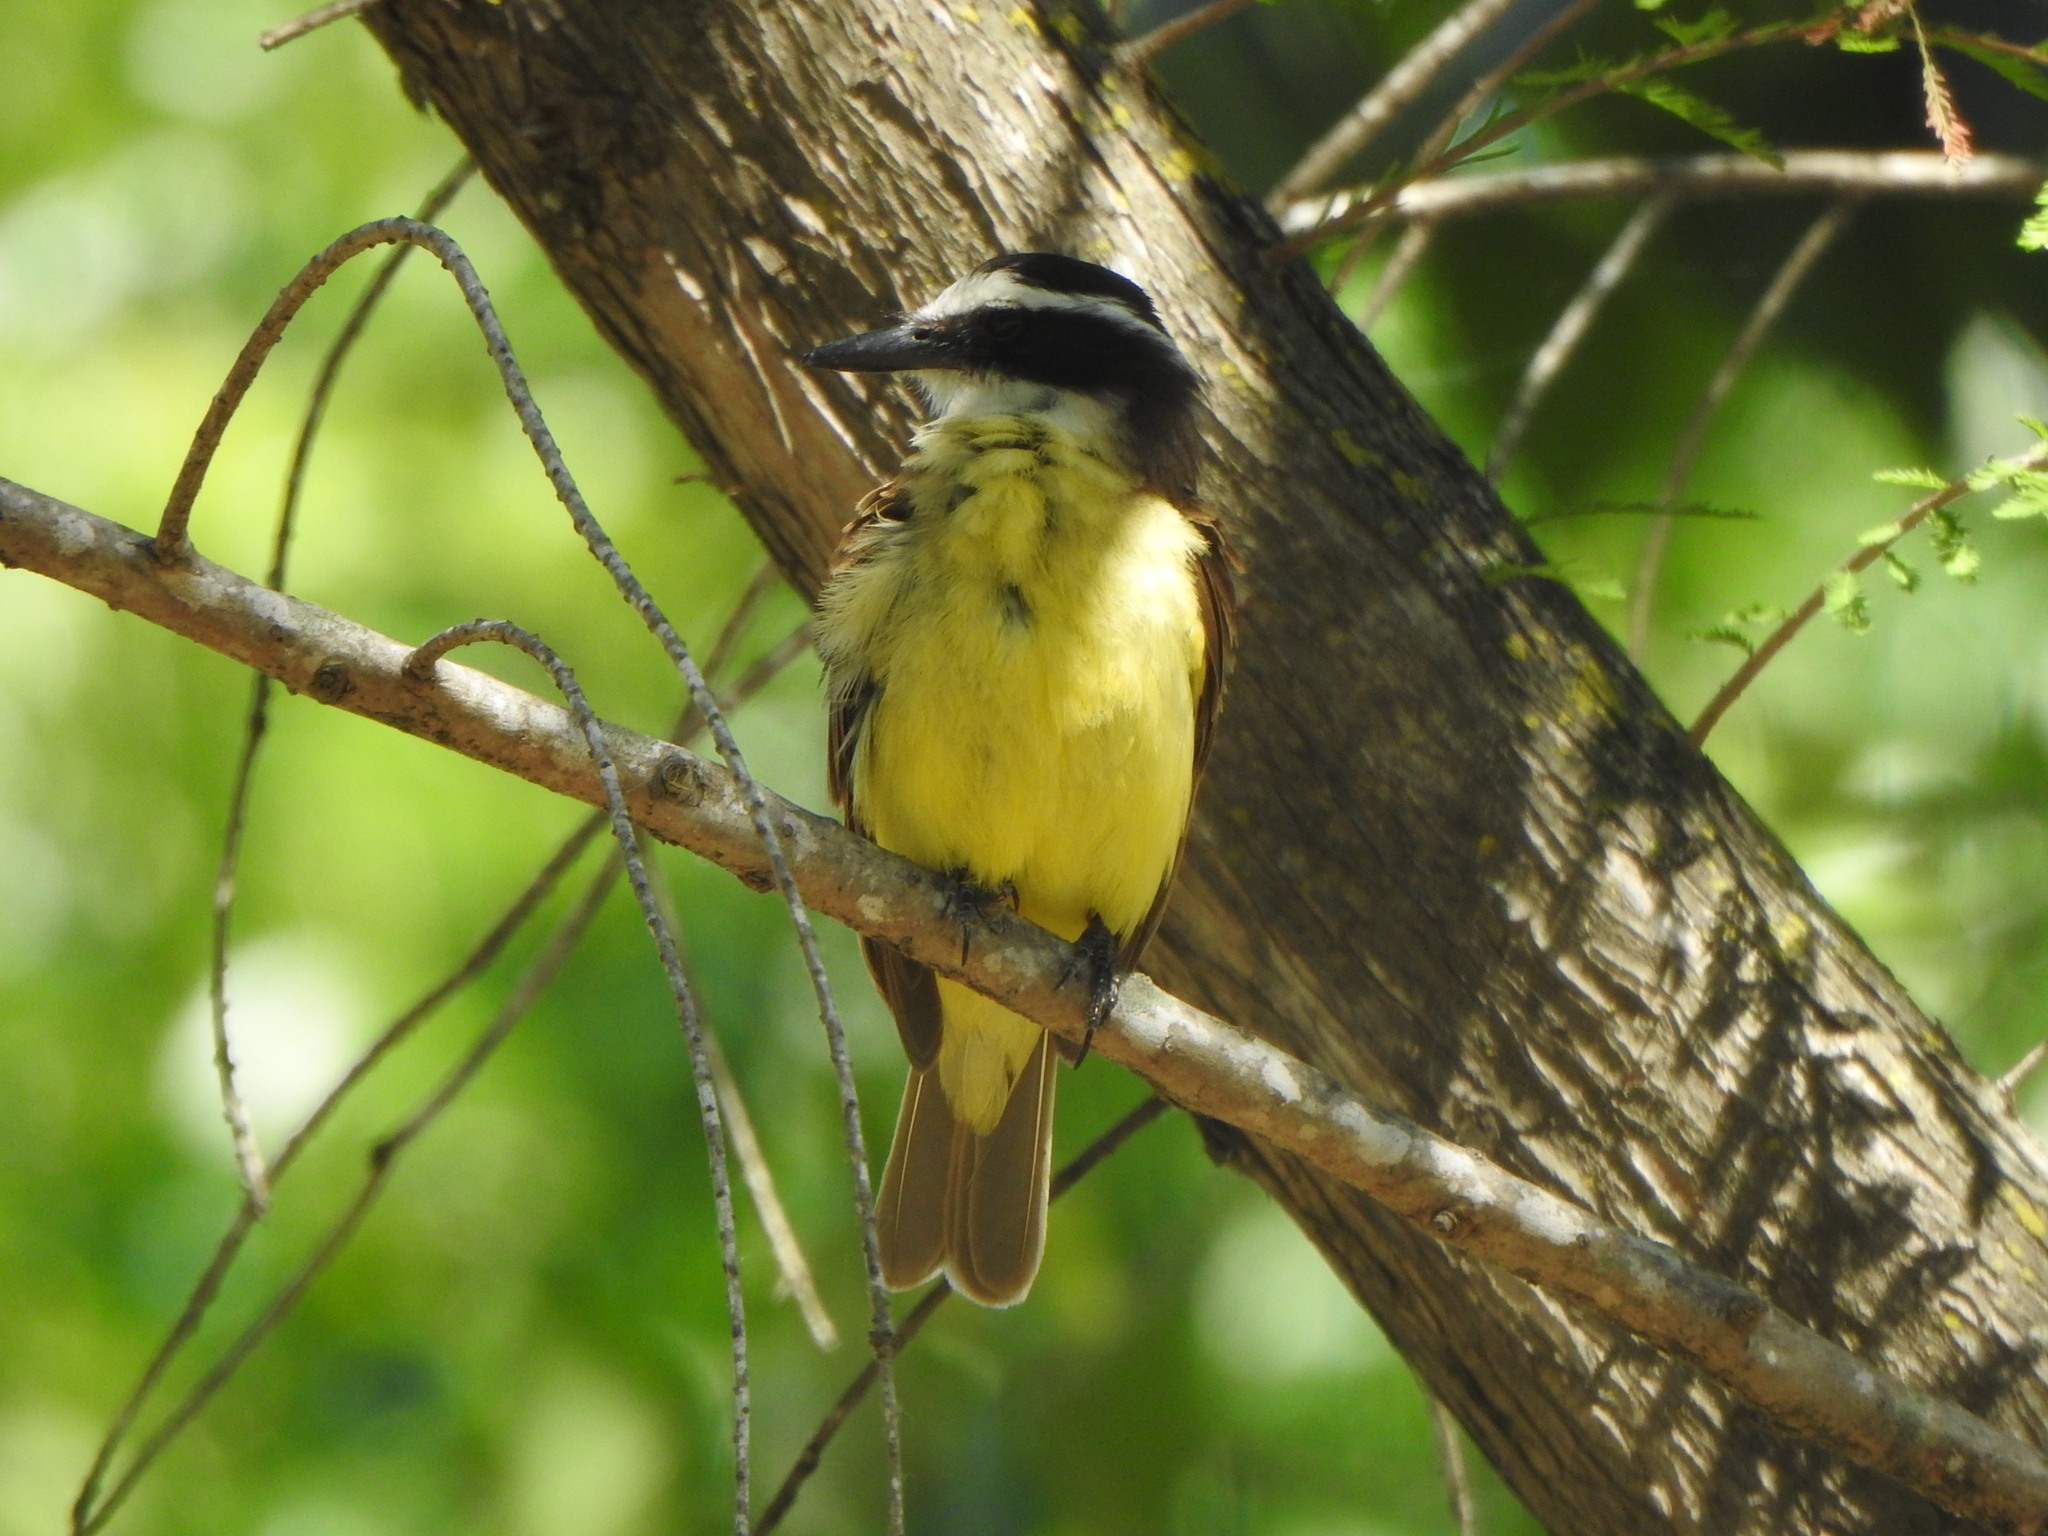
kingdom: Animalia
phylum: Chordata
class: Aves
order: Passeriformes
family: Tyrannidae
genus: Pitangus
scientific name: Pitangus sulphuratus
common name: Great kiskadee
